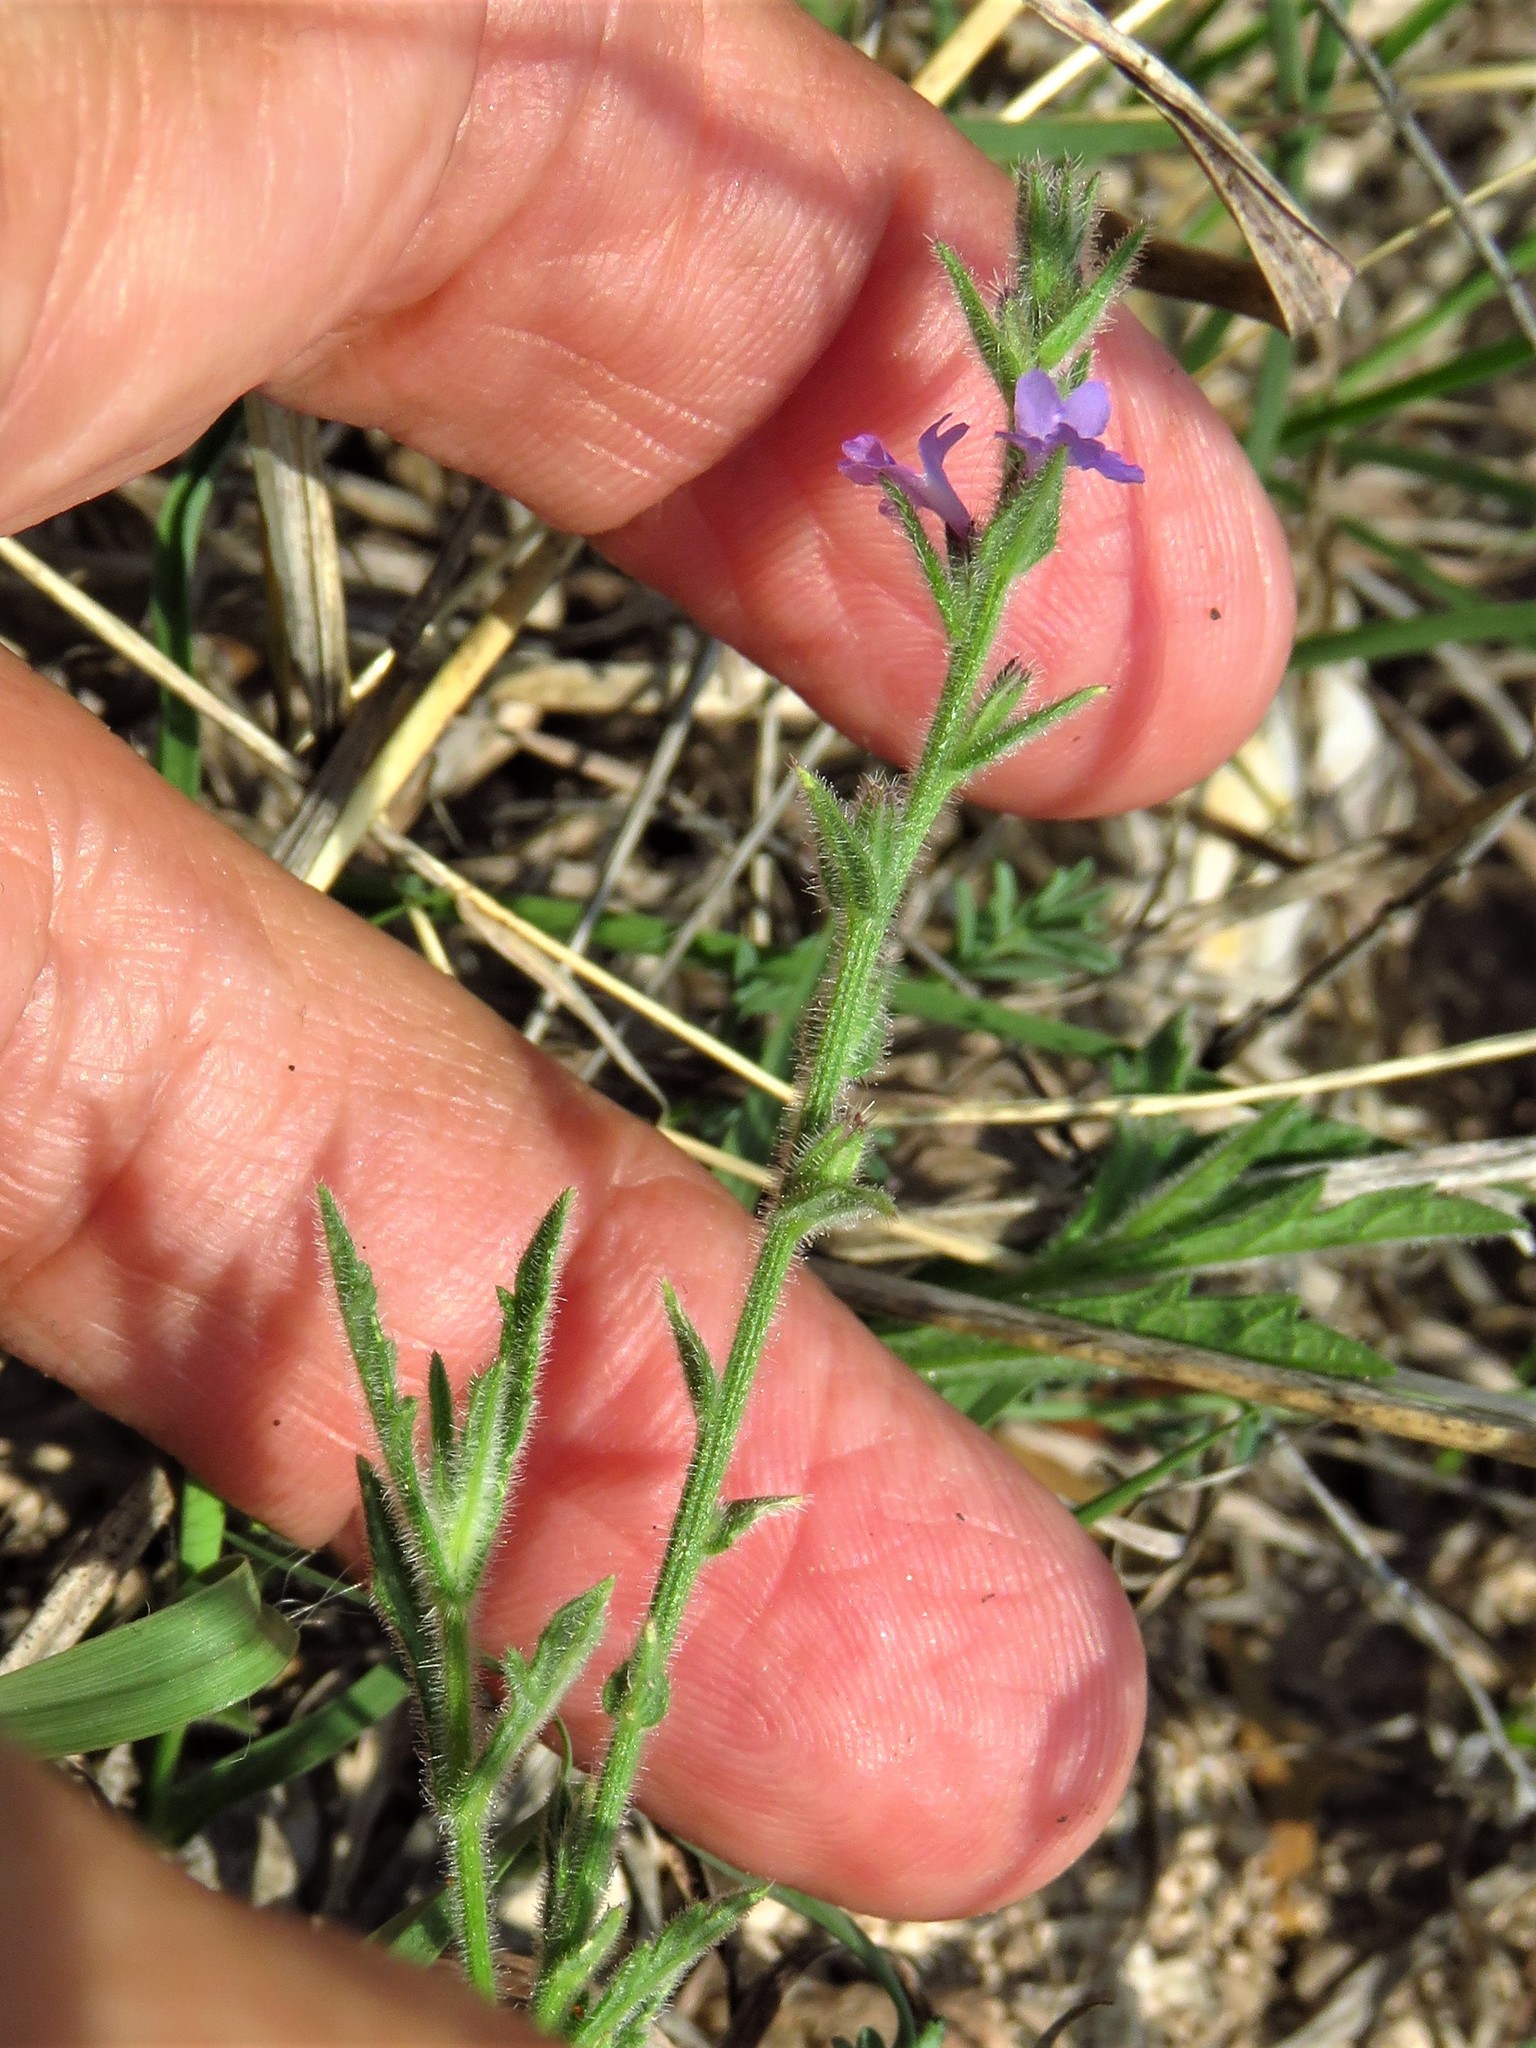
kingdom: Plantae
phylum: Tracheophyta
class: Magnoliopsida
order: Lamiales
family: Verbenaceae
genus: Verbena
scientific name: Verbena canescens
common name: Gray vervain
